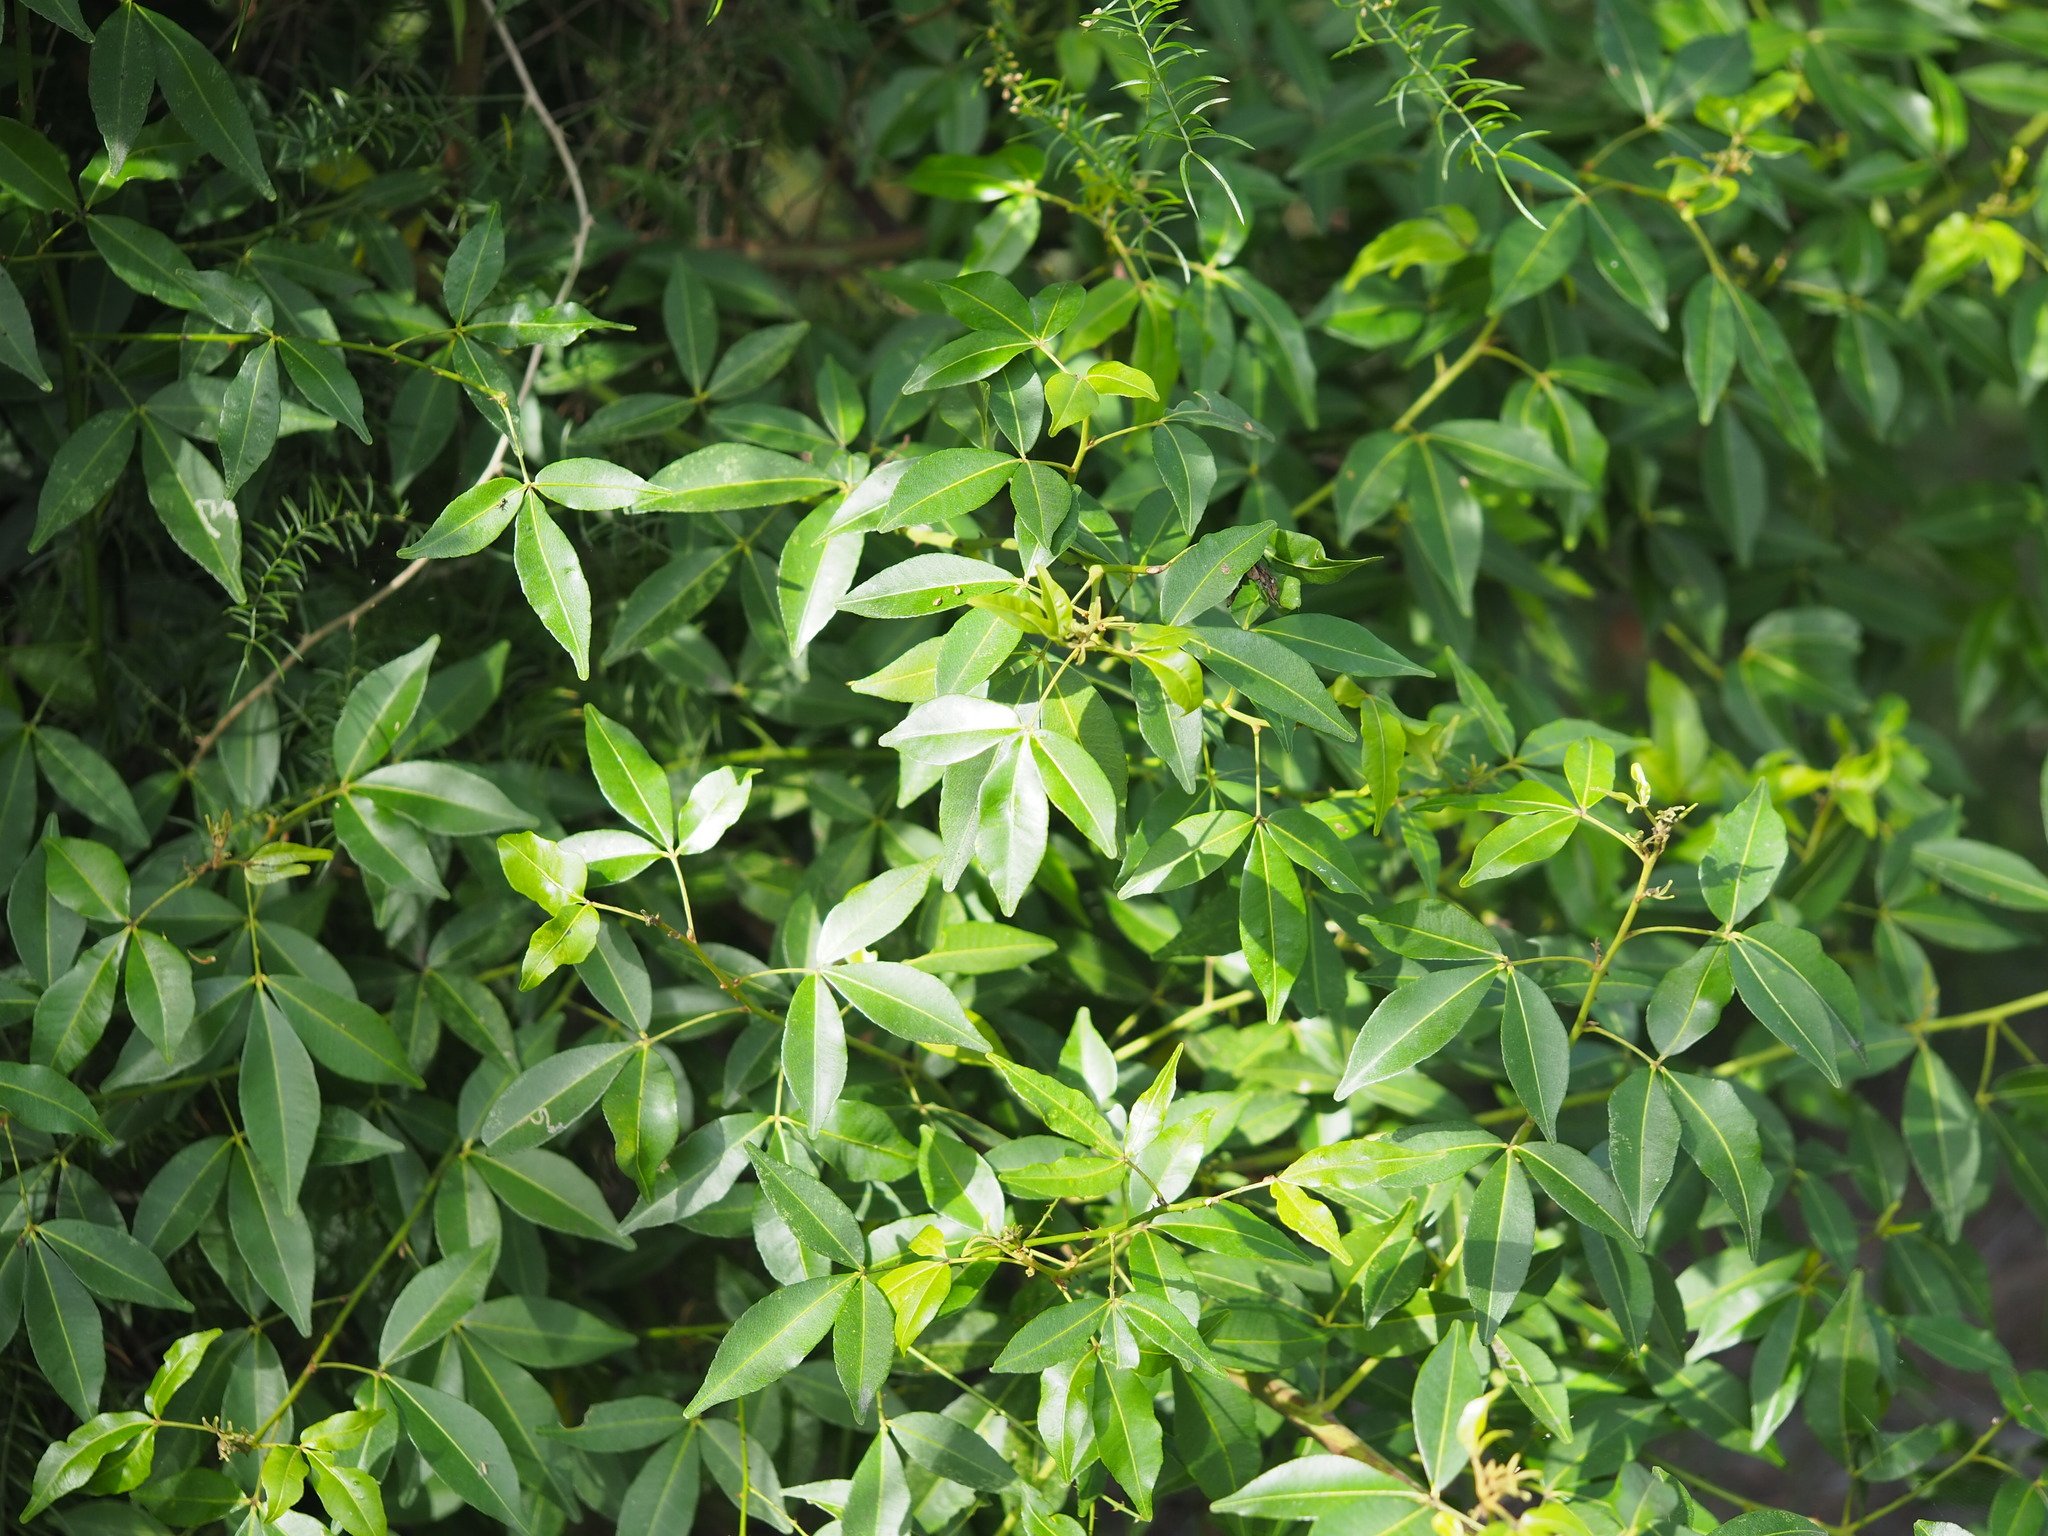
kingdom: Plantae
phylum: Tracheophyta
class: Magnoliopsida
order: Sapindales
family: Rutaceae
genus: Zanthoxylum
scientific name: Zanthoxylum asiaticum
